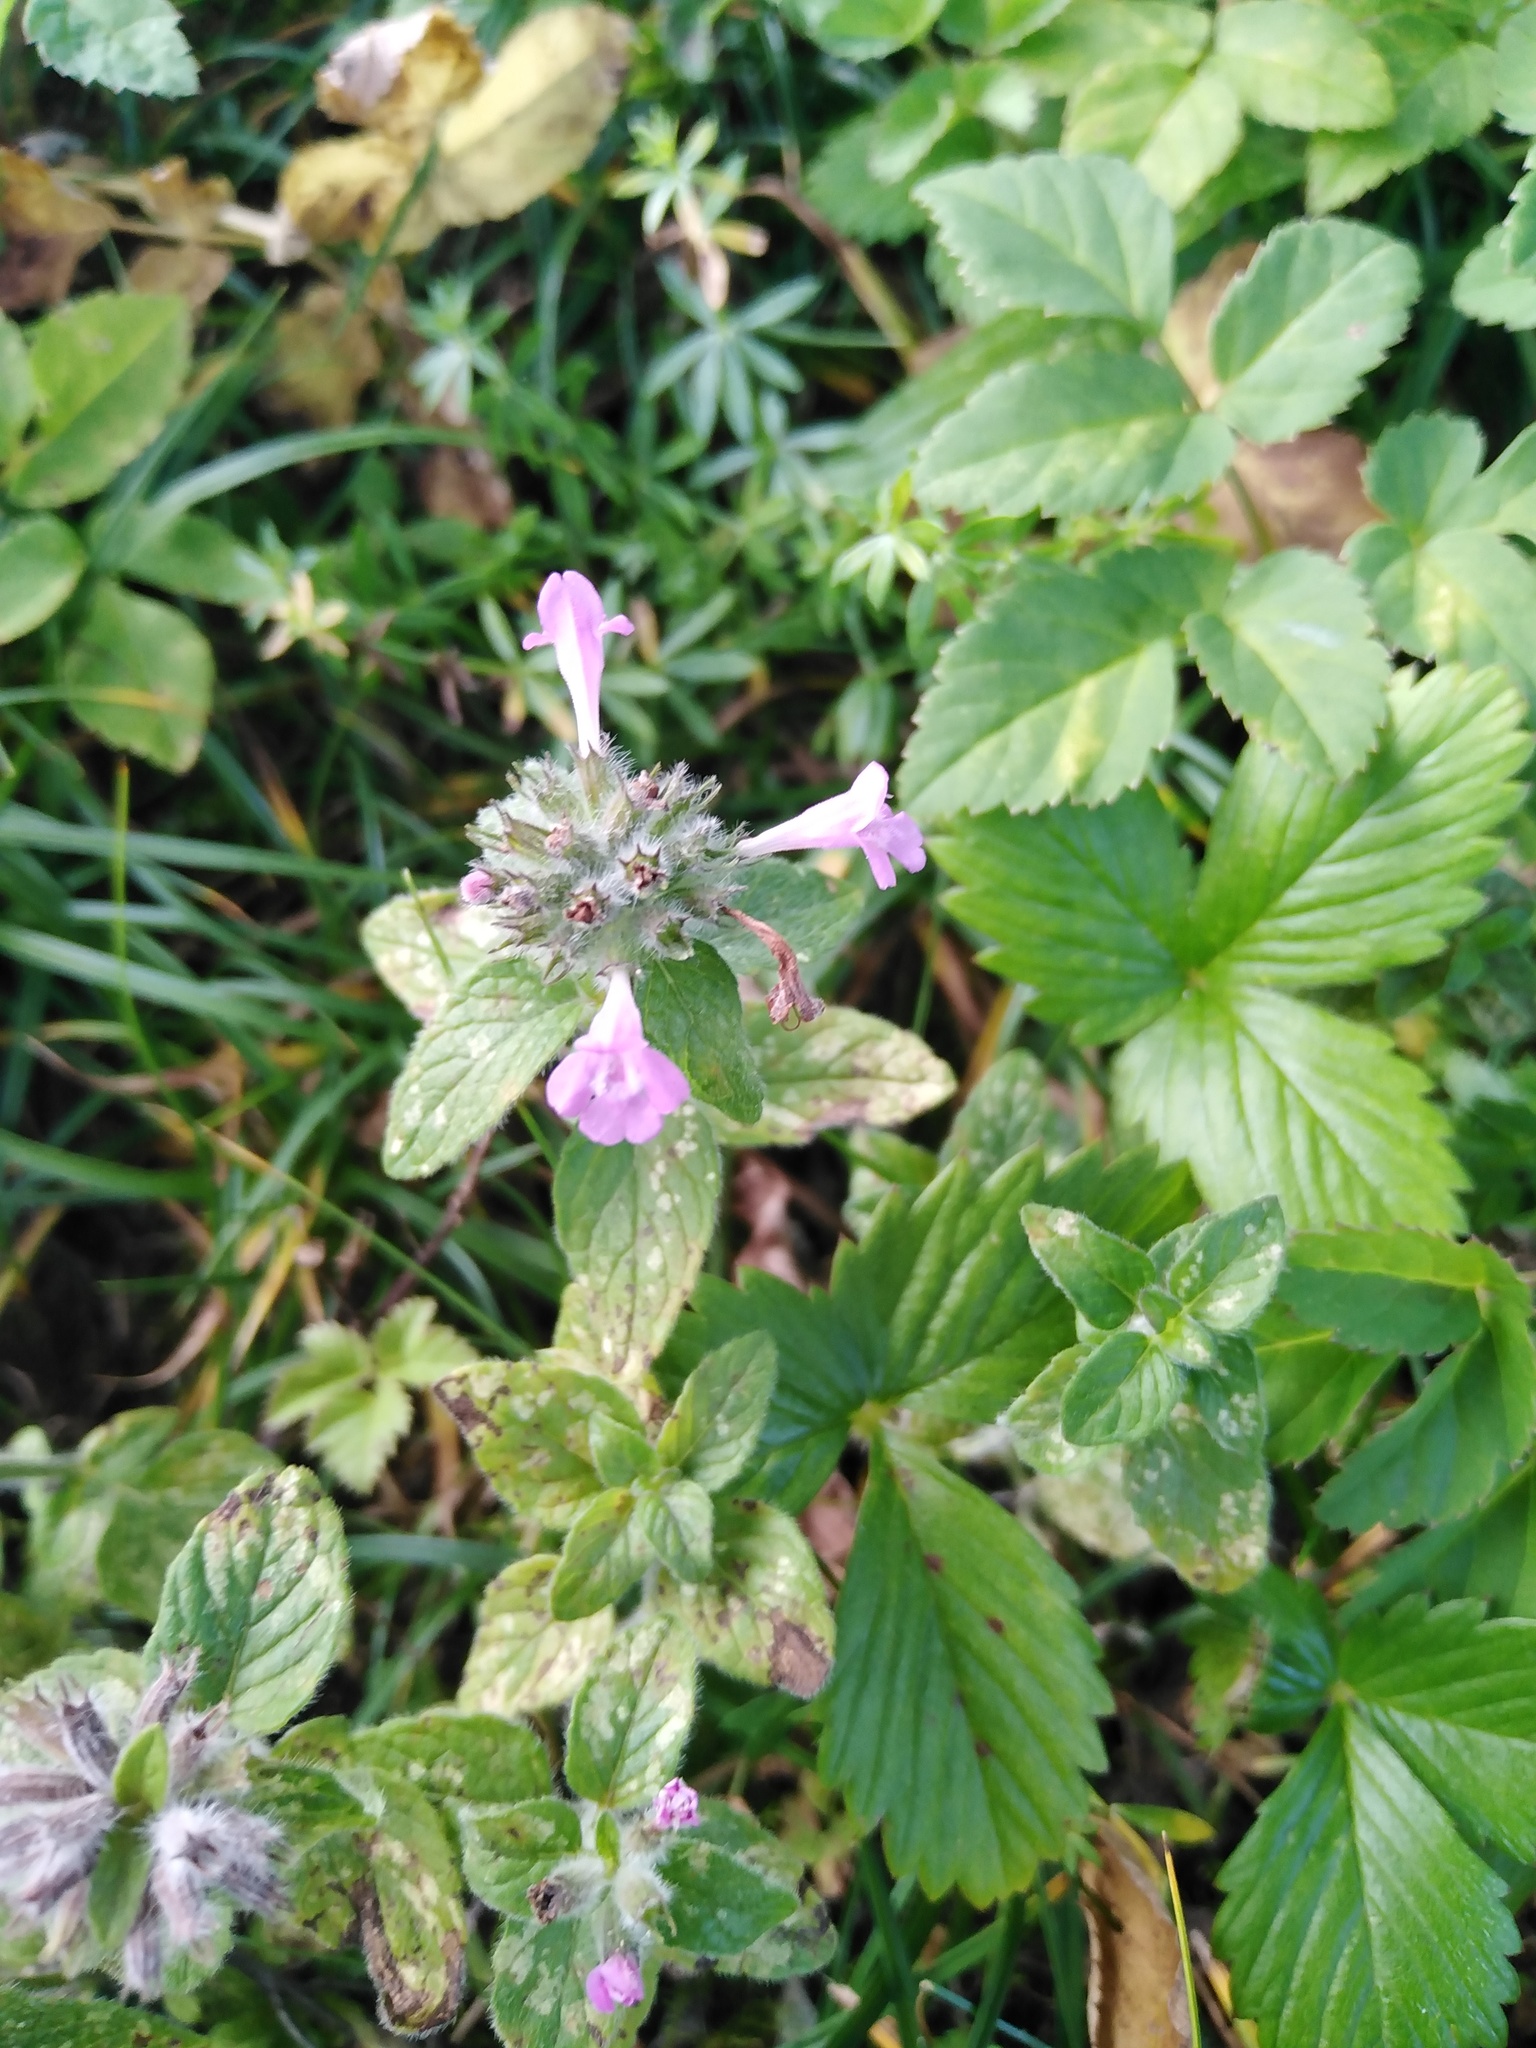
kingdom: Plantae
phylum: Tracheophyta
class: Magnoliopsida
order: Lamiales
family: Lamiaceae
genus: Clinopodium
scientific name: Clinopodium vulgare
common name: Wild basil
